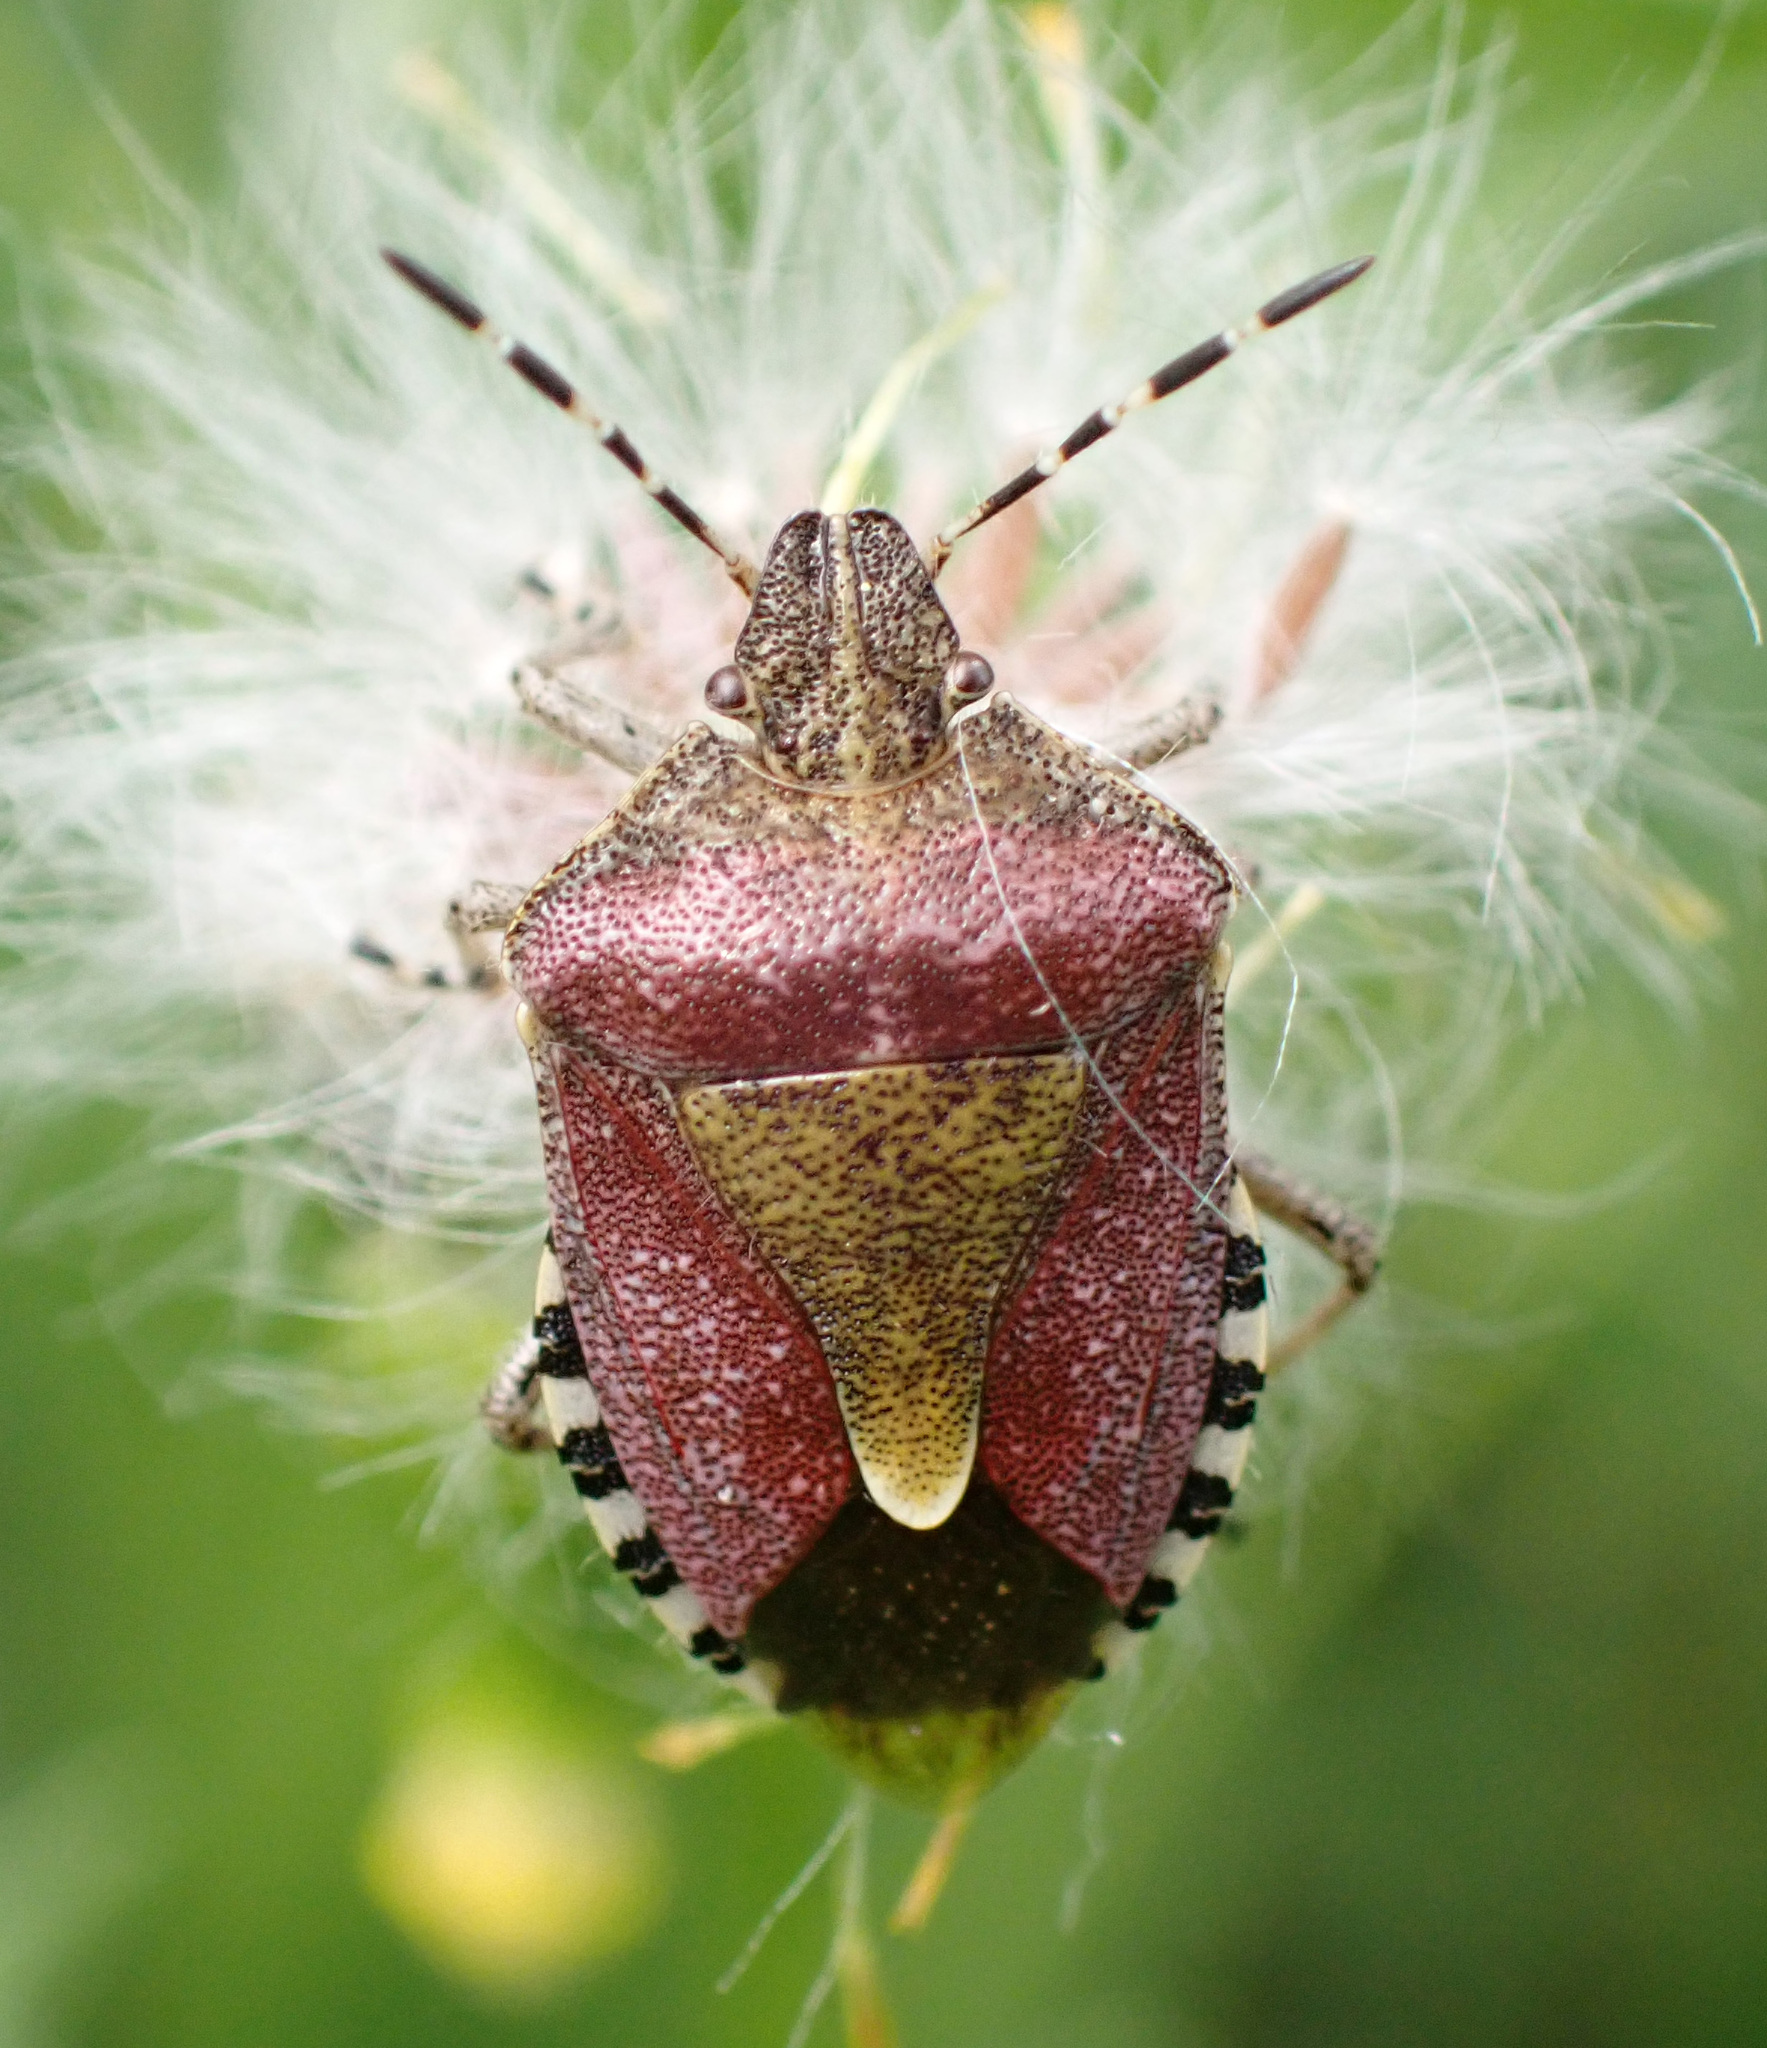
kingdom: Animalia
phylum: Arthropoda
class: Insecta
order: Hemiptera
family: Pentatomidae
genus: Dolycoris
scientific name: Dolycoris baccarum
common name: Sloe bug
